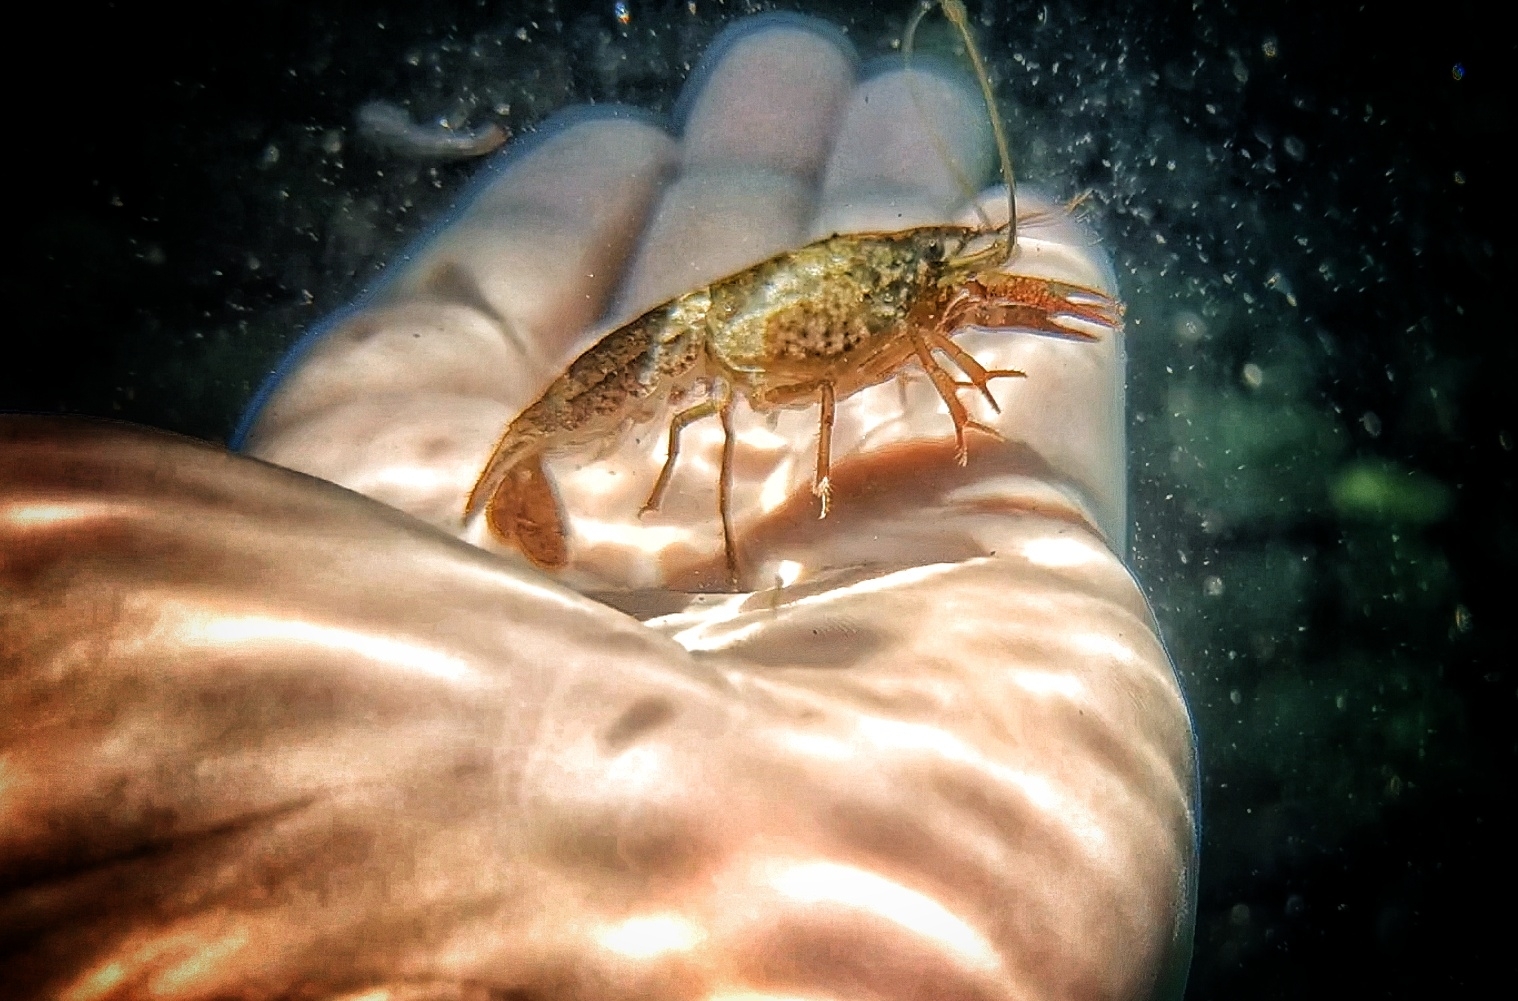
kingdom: Animalia
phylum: Arthropoda
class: Malacostraca
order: Decapoda
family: Cambaridae
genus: Procambarus
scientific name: Procambarus clarkii
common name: Red swamp crayfish
